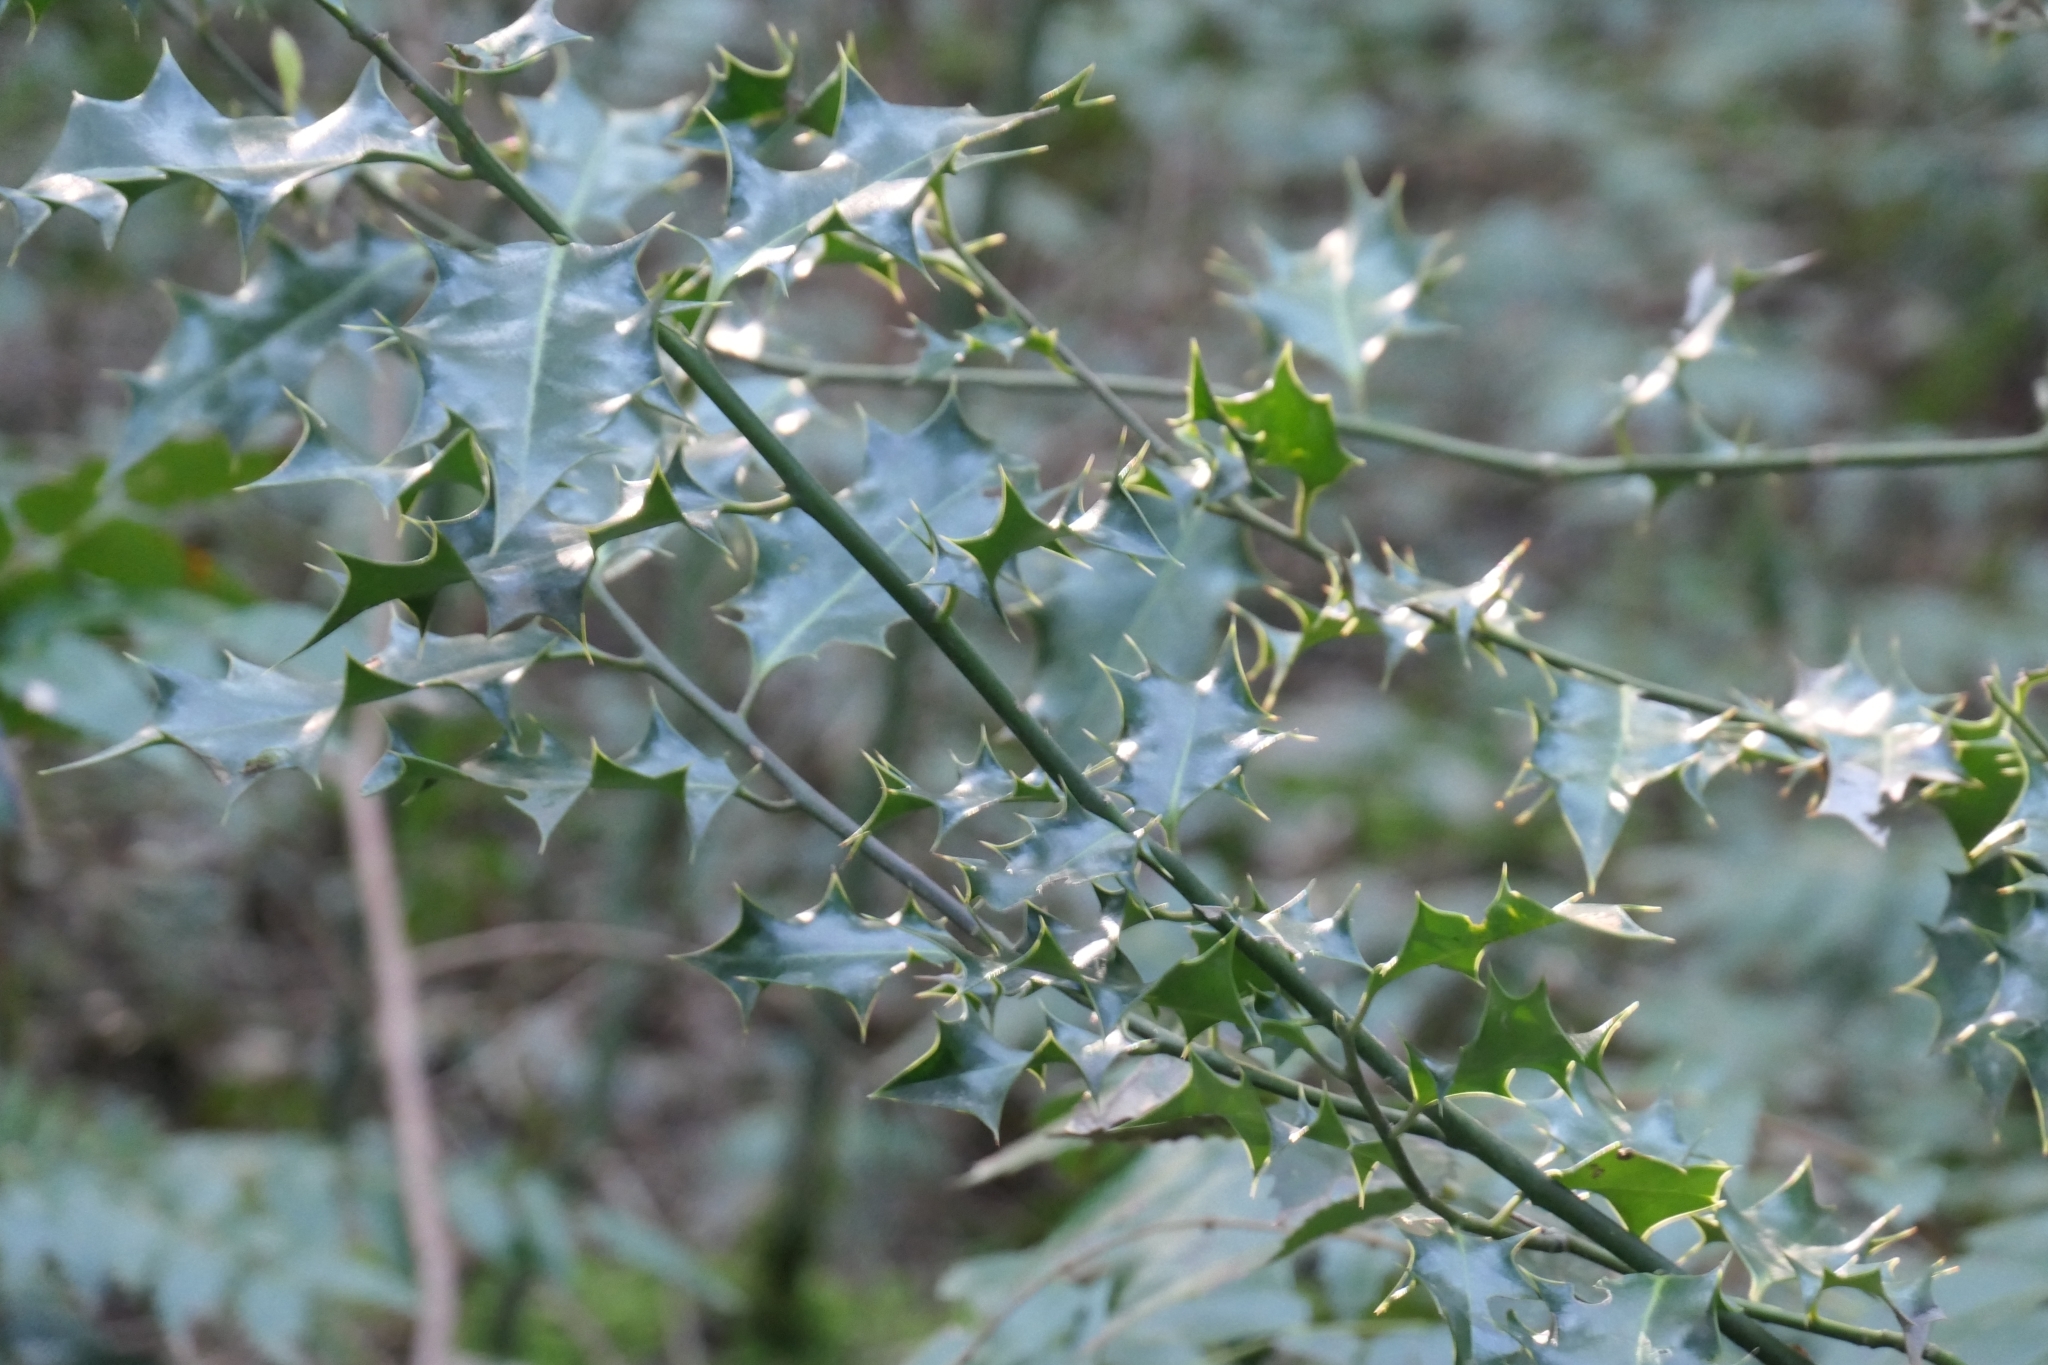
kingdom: Plantae
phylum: Tracheophyta
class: Magnoliopsida
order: Aquifoliales
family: Aquifoliaceae
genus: Ilex
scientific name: Ilex aquifolium
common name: English holly
